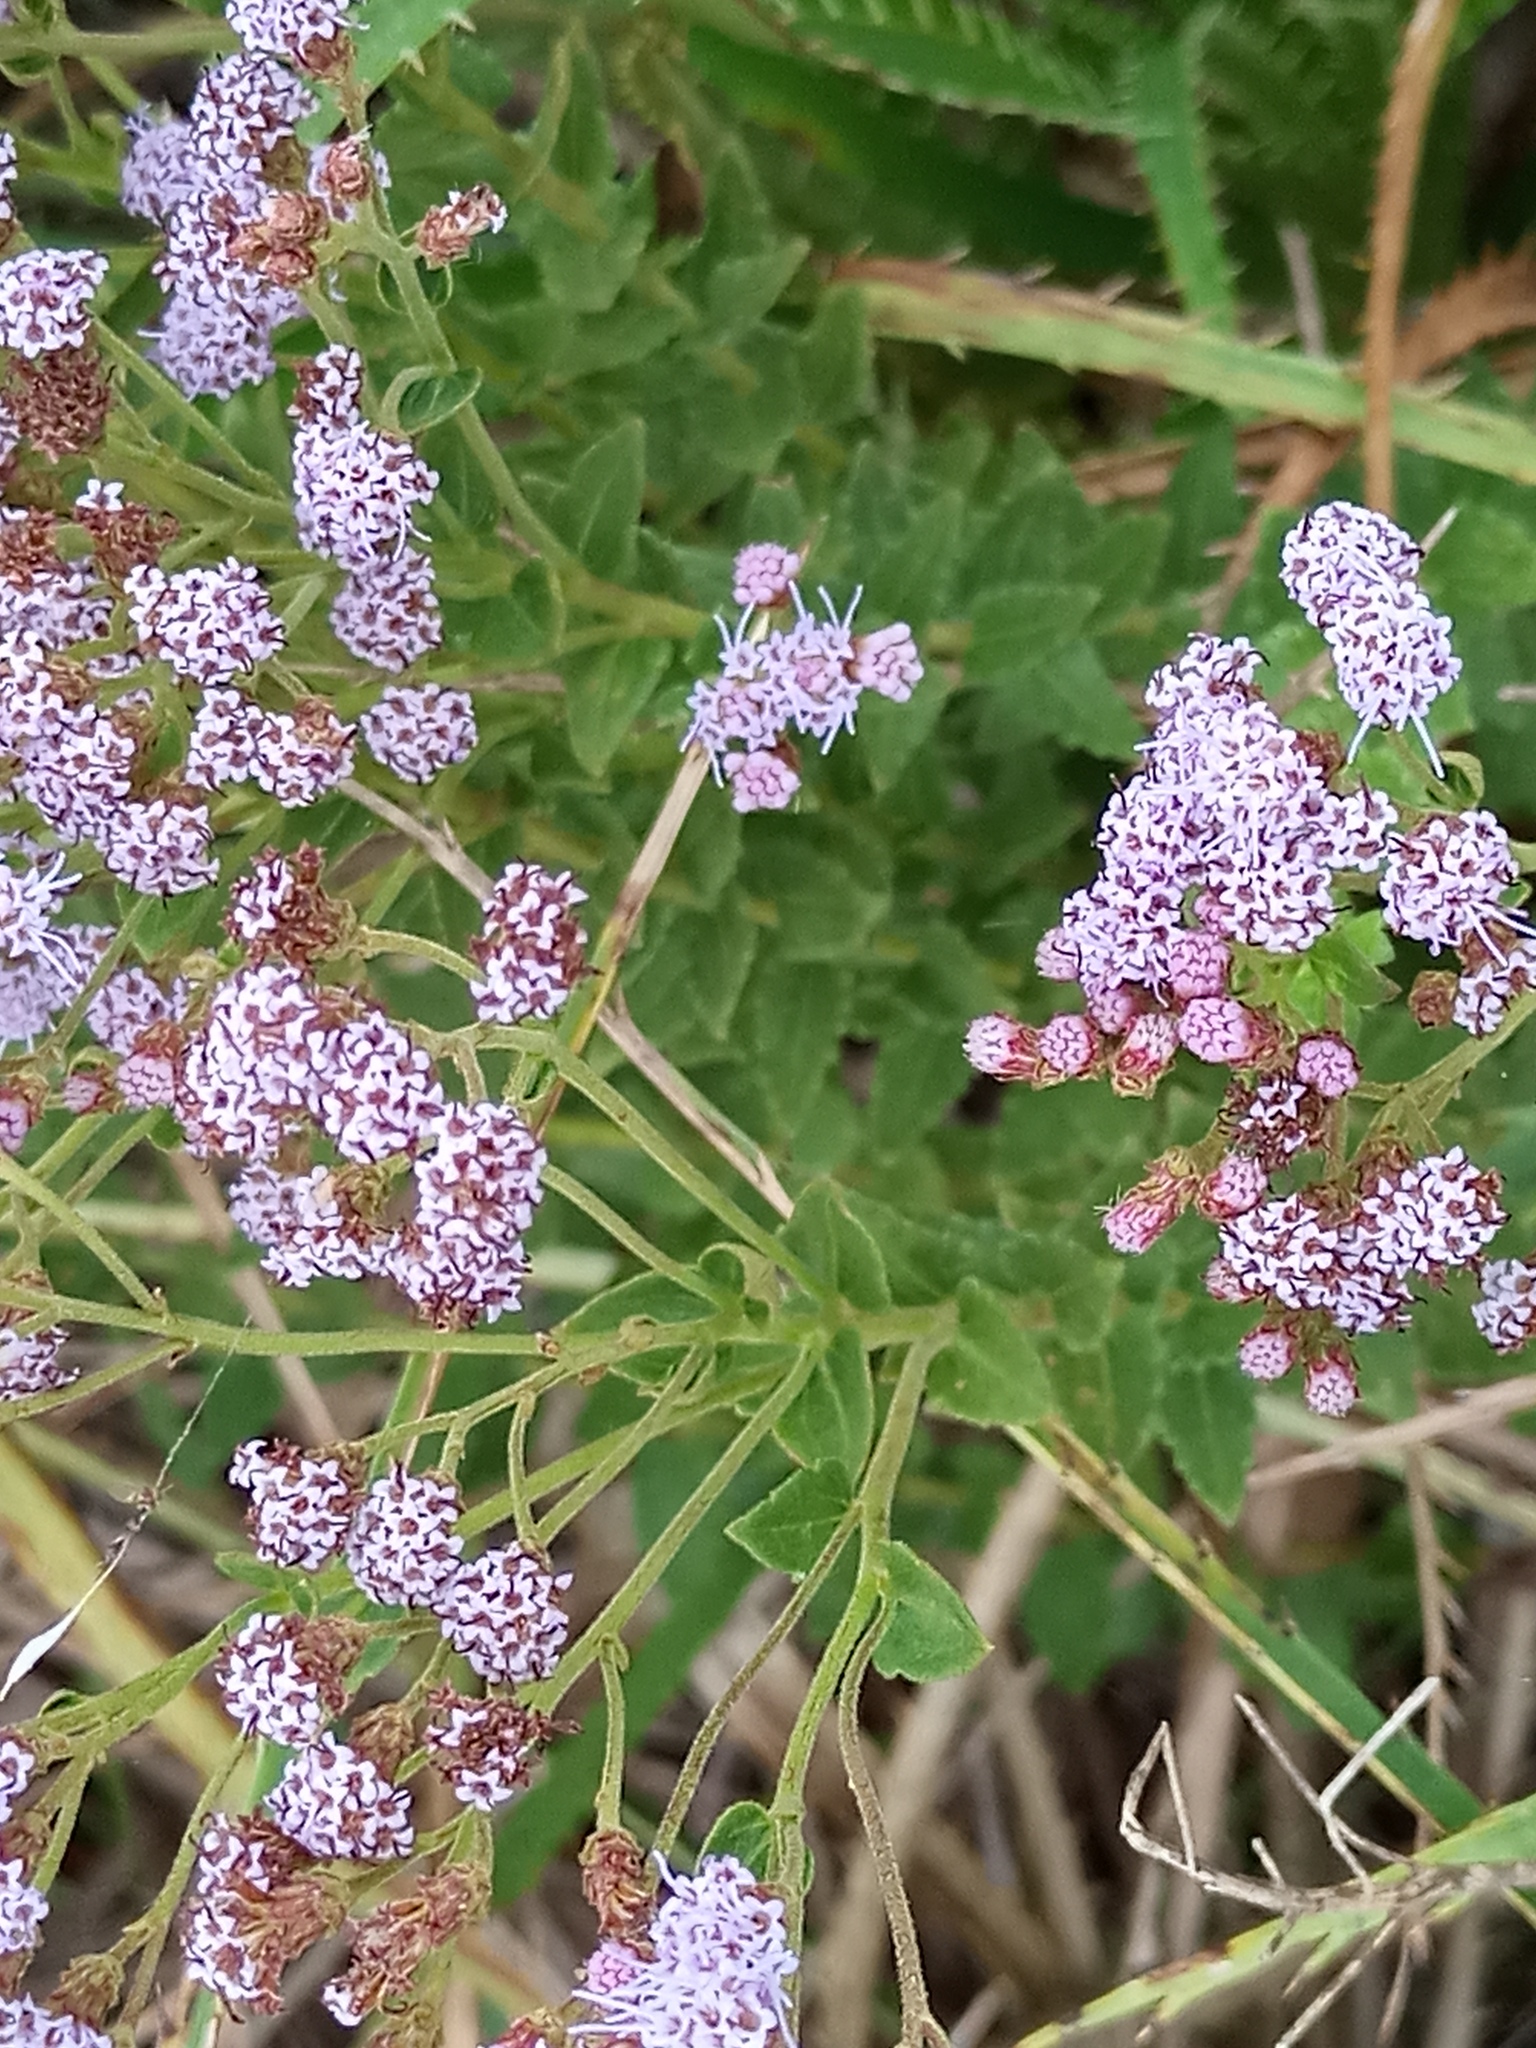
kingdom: Plantae
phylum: Tracheophyta
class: Magnoliopsida
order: Asterales
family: Asteraceae
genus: Chromolaena
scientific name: Chromolaena hirsuta
